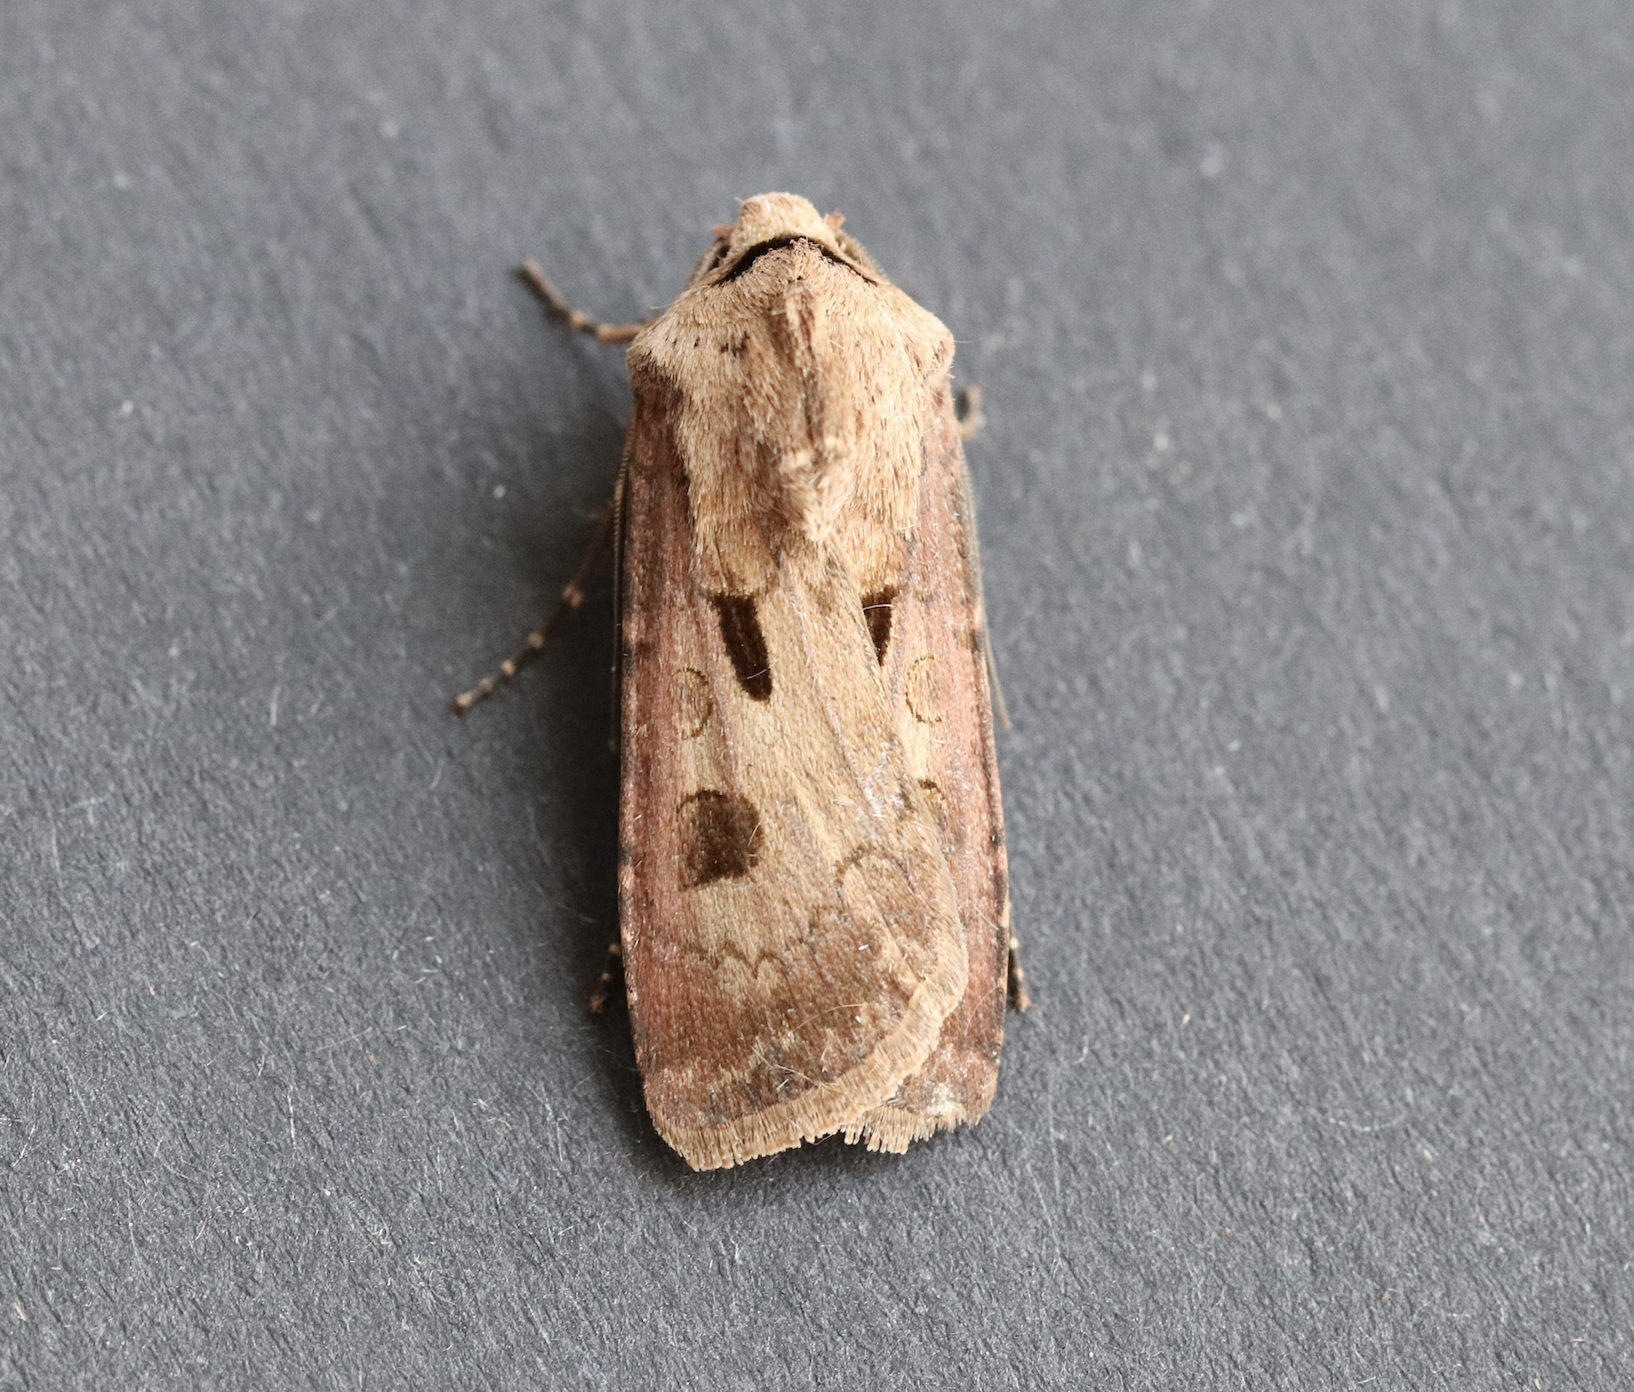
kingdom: Animalia
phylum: Arthropoda
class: Insecta
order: Lepidoptera
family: Noctuidae
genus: Agrotis
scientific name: Agrotis exclamationis
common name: Heart and dart
